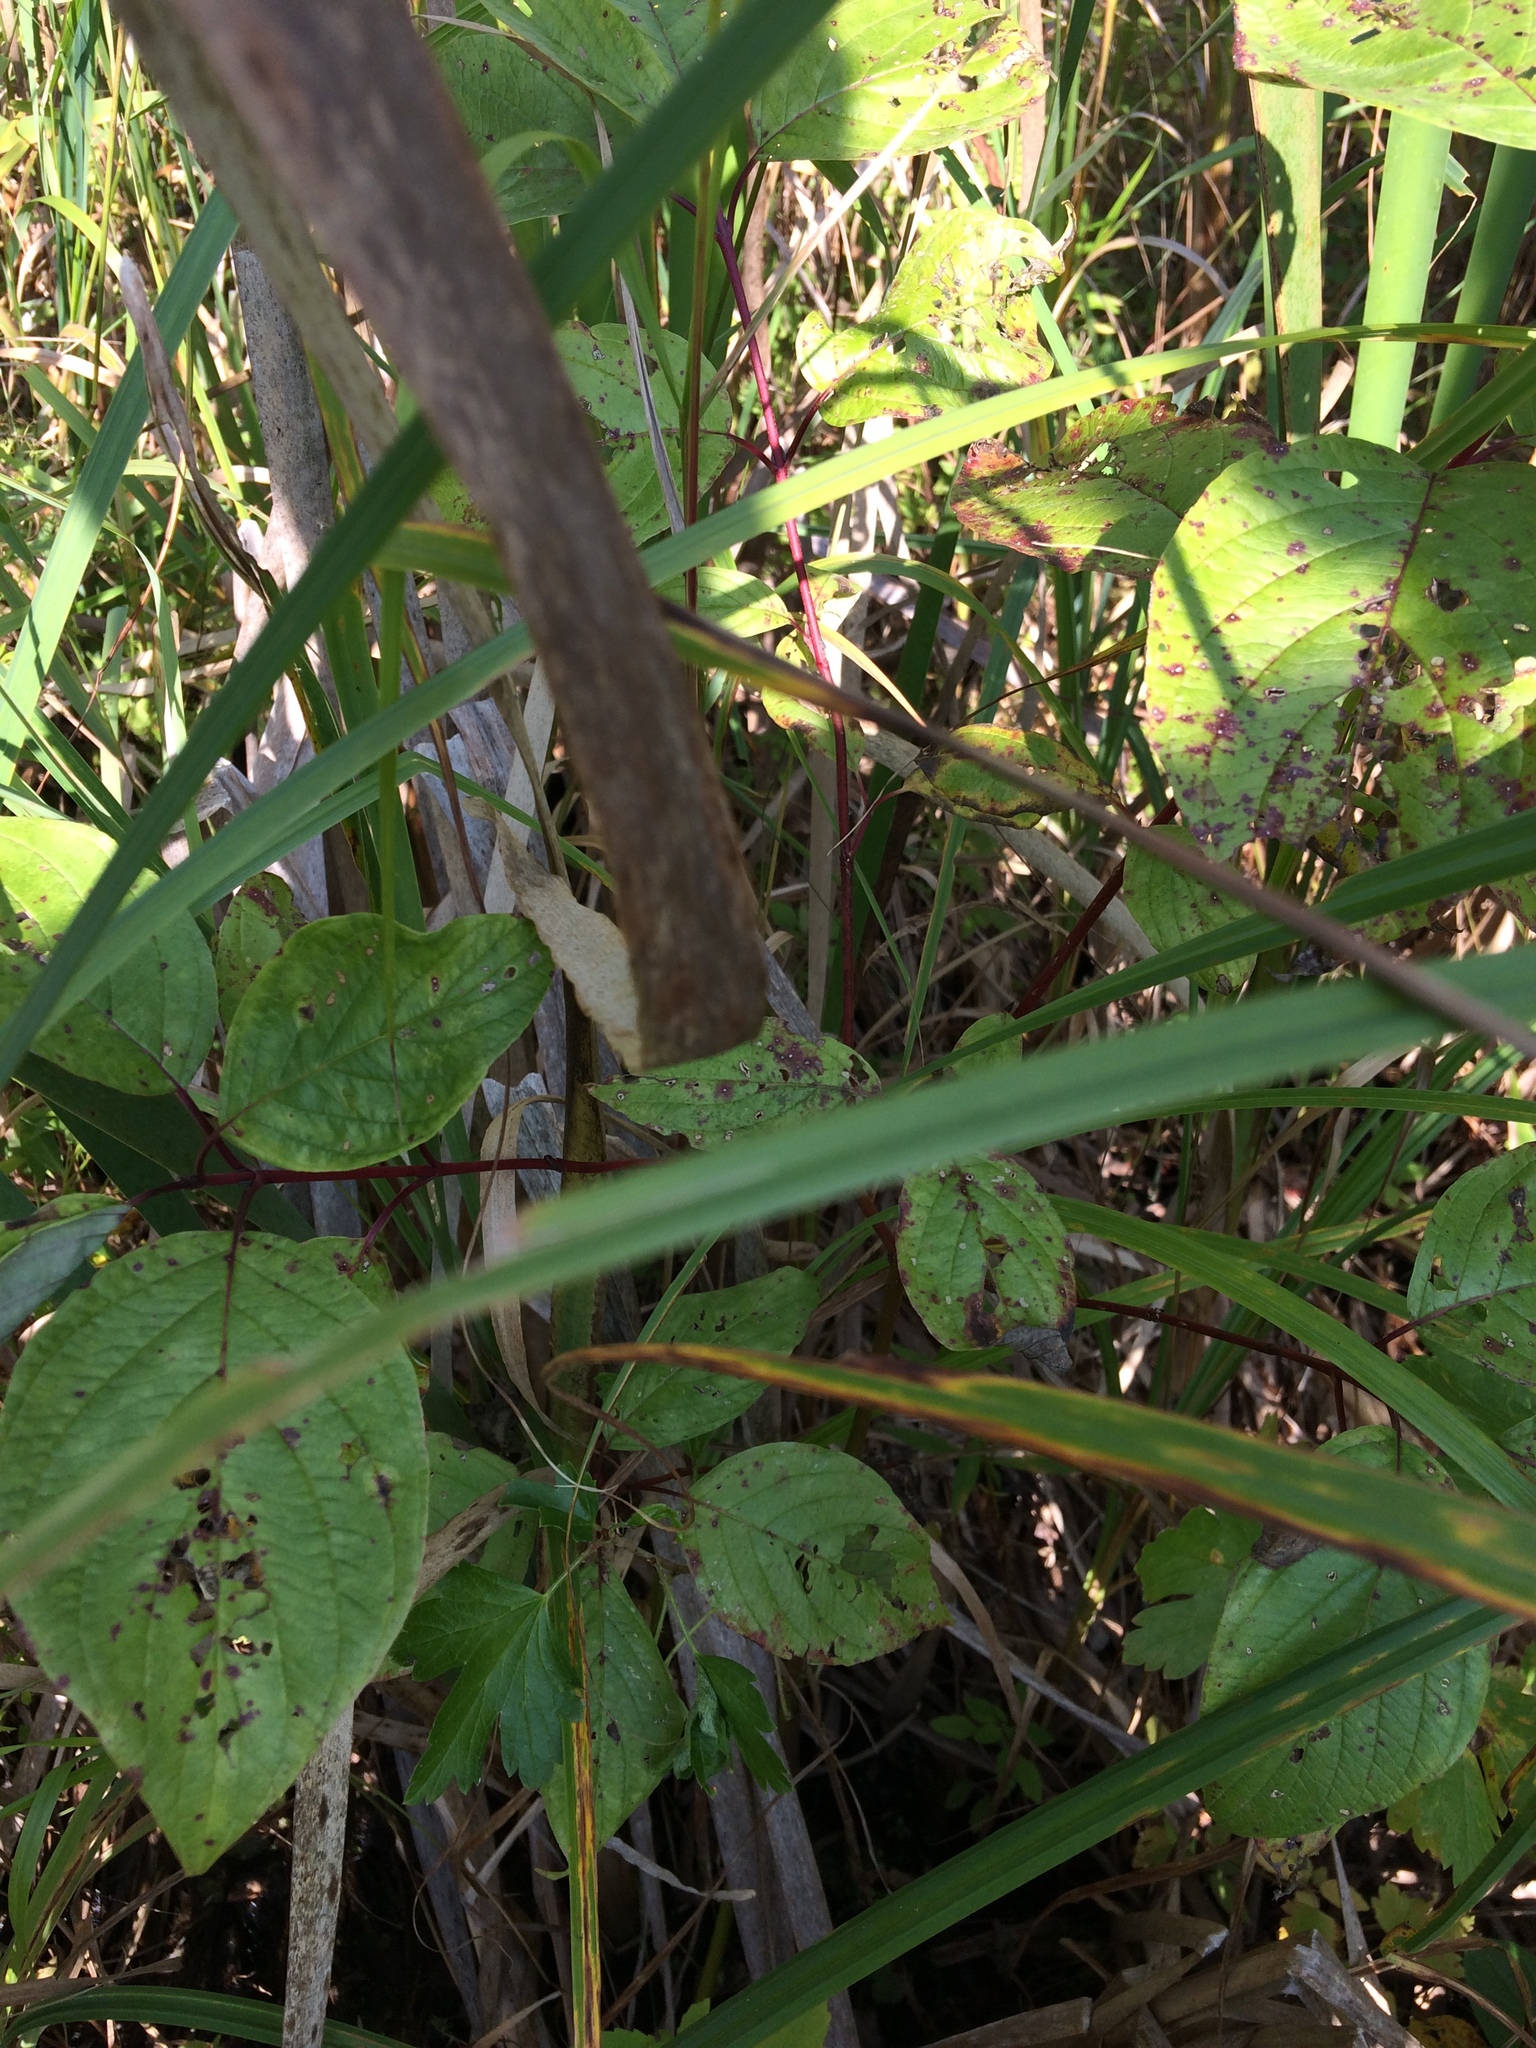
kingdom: Plantae
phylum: Tracheophyta
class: Magnoliopsida
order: Cornales
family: Cornaceae
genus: Cornus
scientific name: Cornus sericea
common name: Red-osier dogwood
